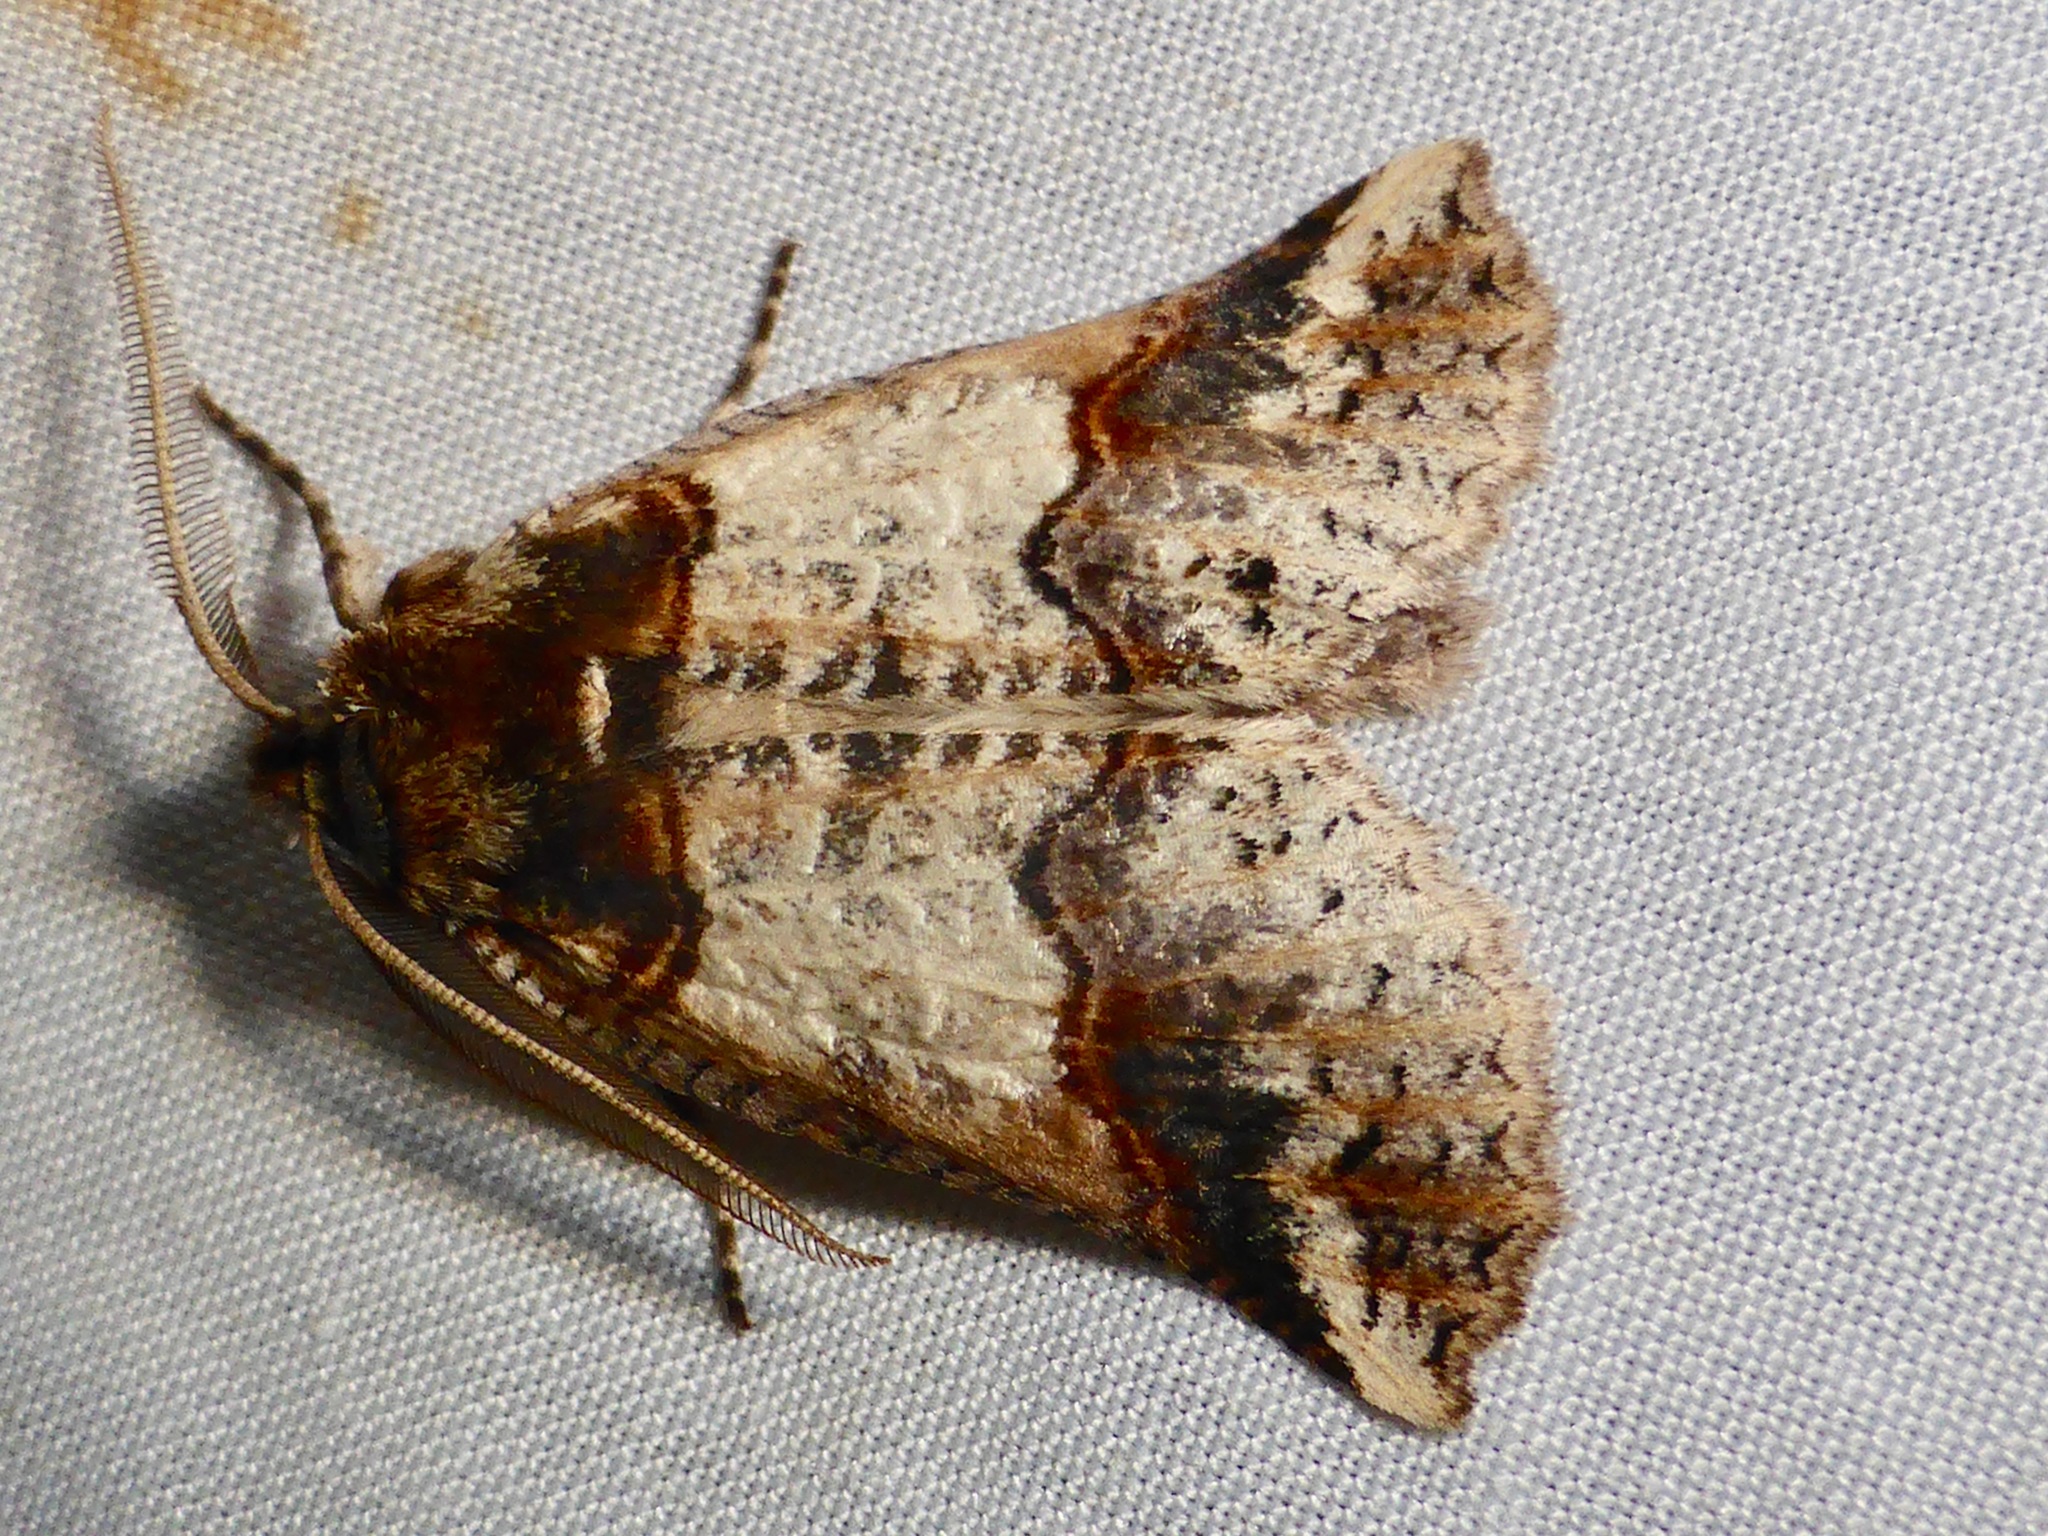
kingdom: Animalia
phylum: Arthropoda
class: Insecta
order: Lepidoptera
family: Geometridae
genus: Declana
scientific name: Declana
